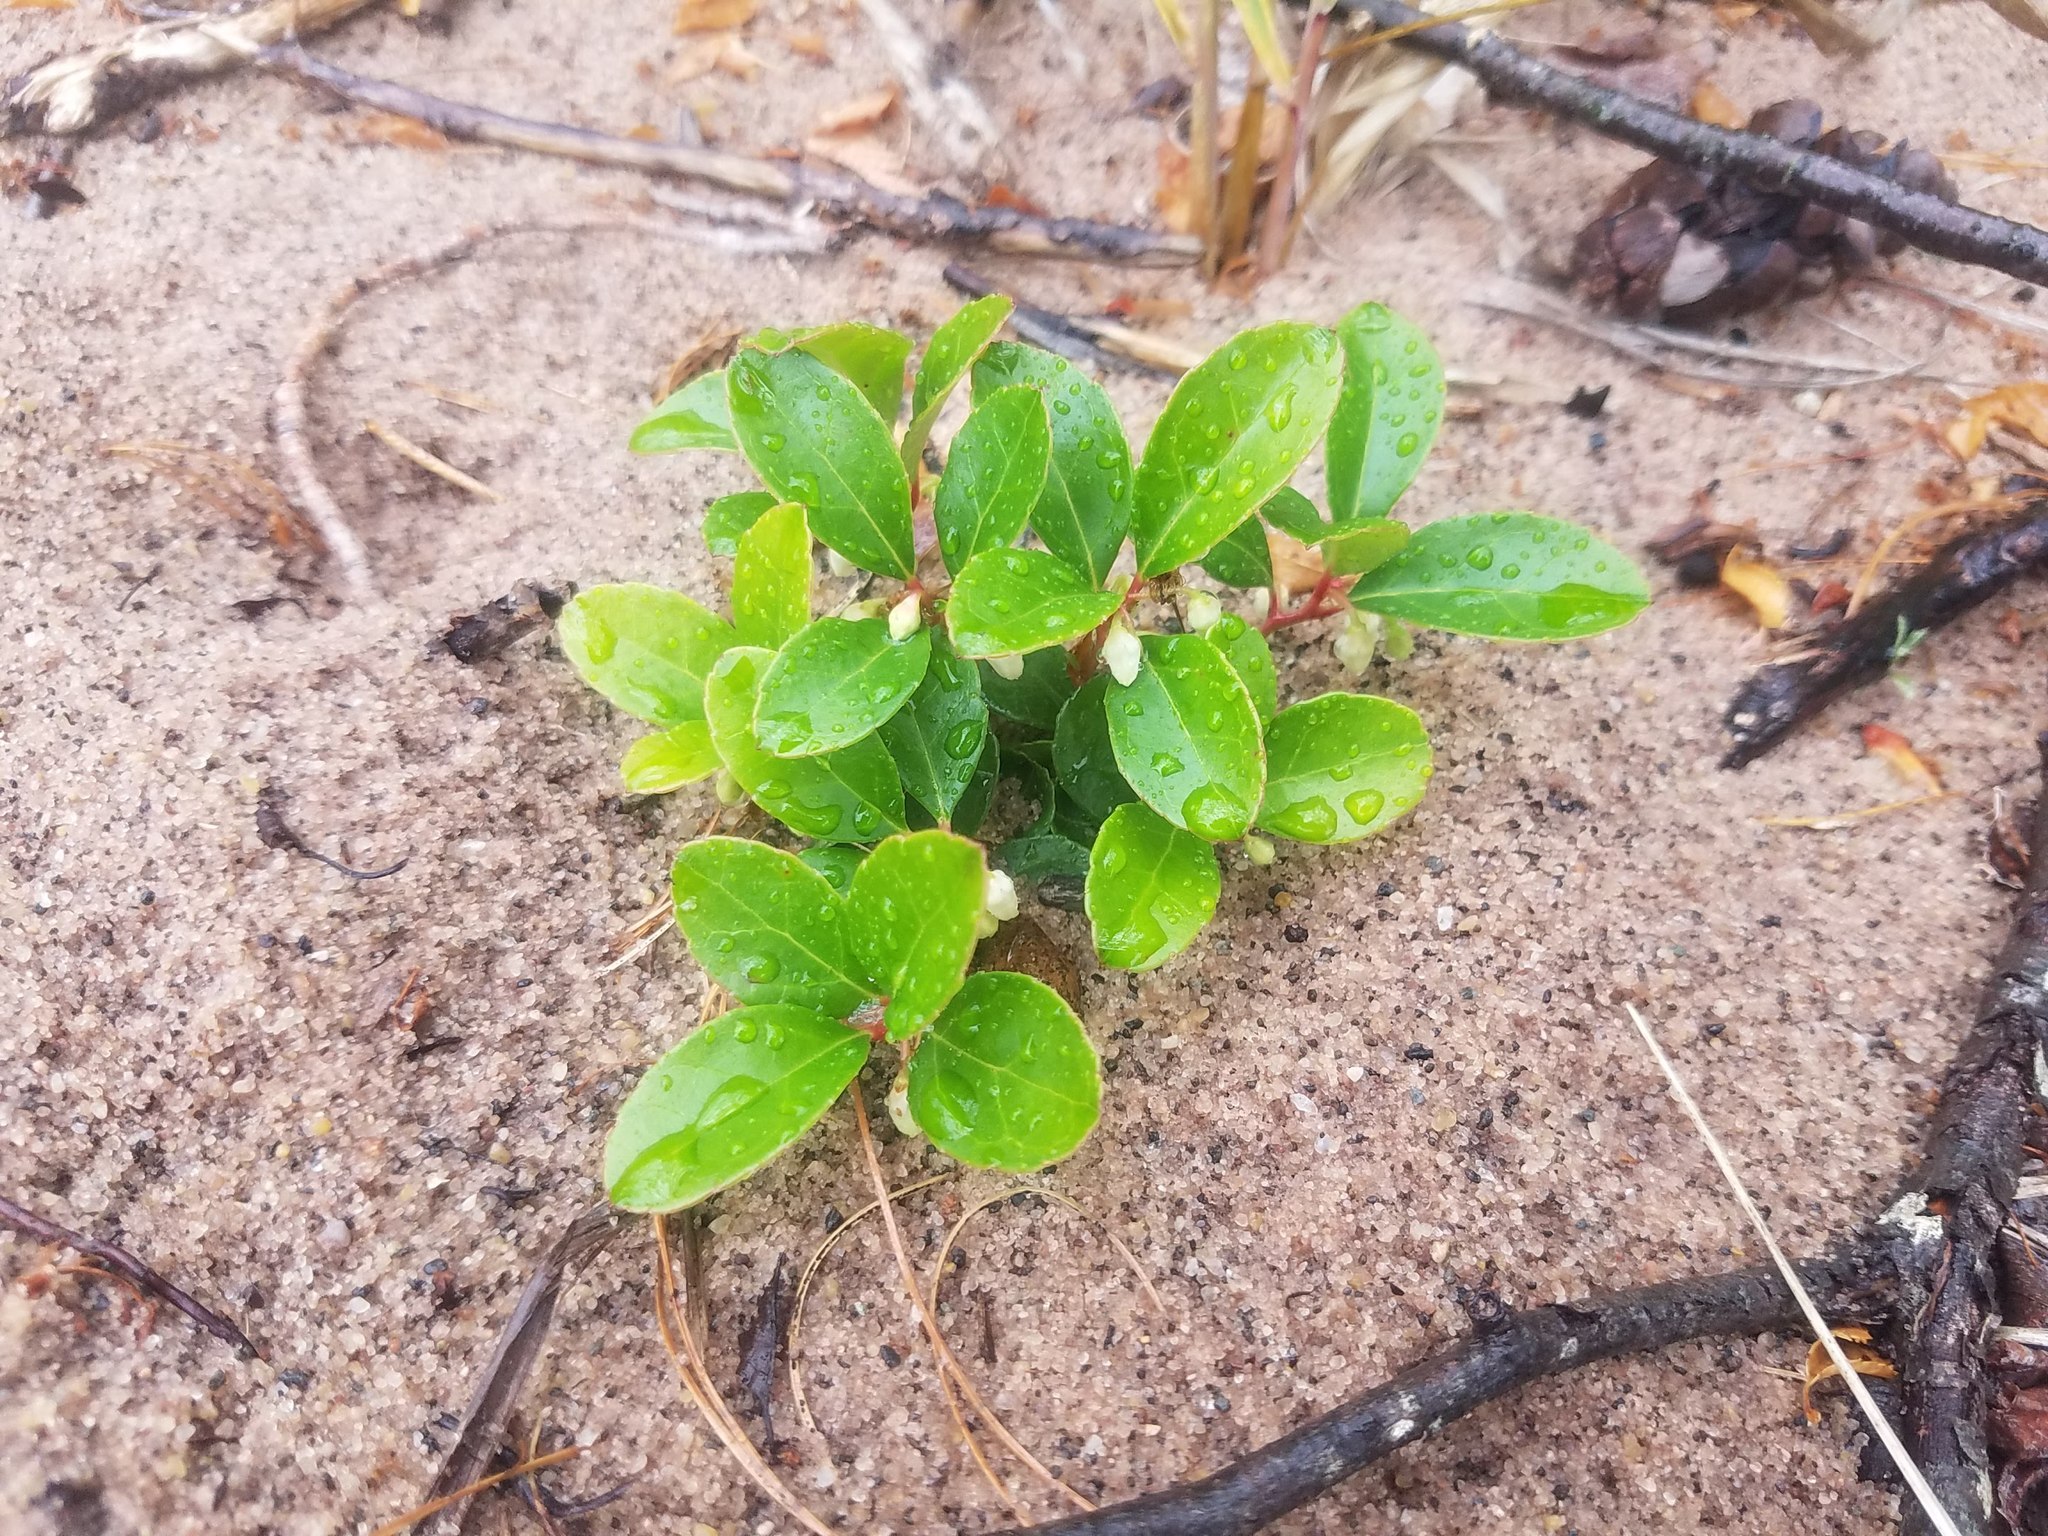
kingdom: Plantae
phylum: Tracheophyta
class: Magnoliopsida
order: Ericales
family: Ericaceae
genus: Gaultheria
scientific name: Gaultheria procumbens
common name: Checkerberry
